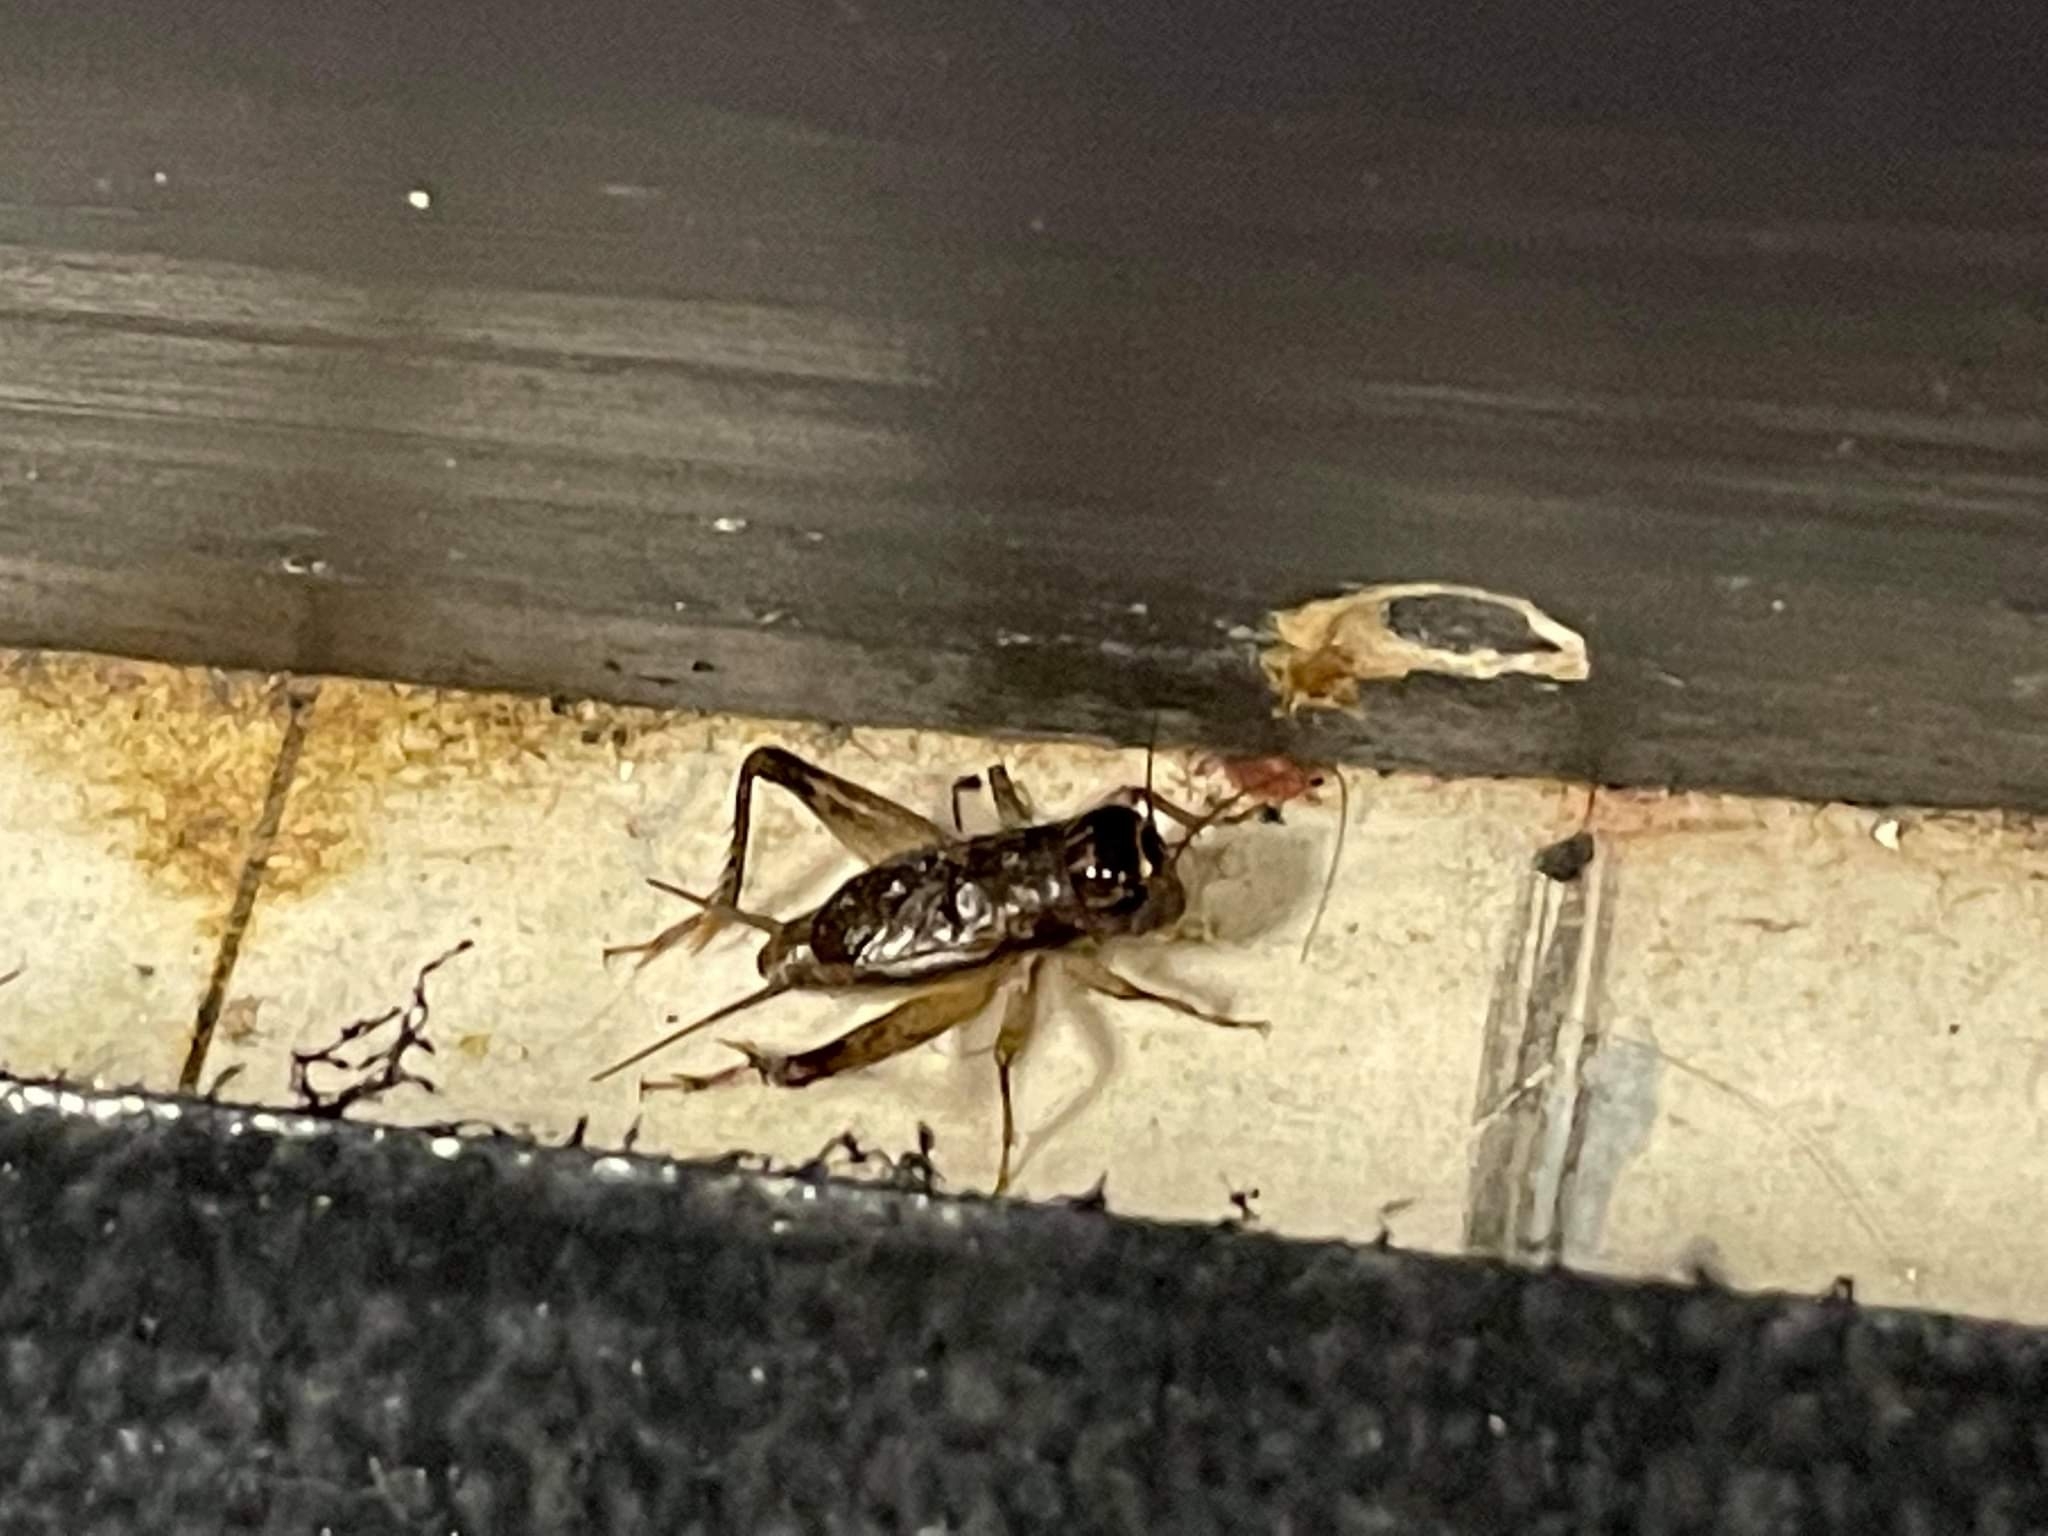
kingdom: Animalia
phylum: Arthropoda
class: Insecta
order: Orthoptera
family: Gryllidae
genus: Velarifictorus
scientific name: Velarifictorus micado
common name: Japanese burrowing cricket
